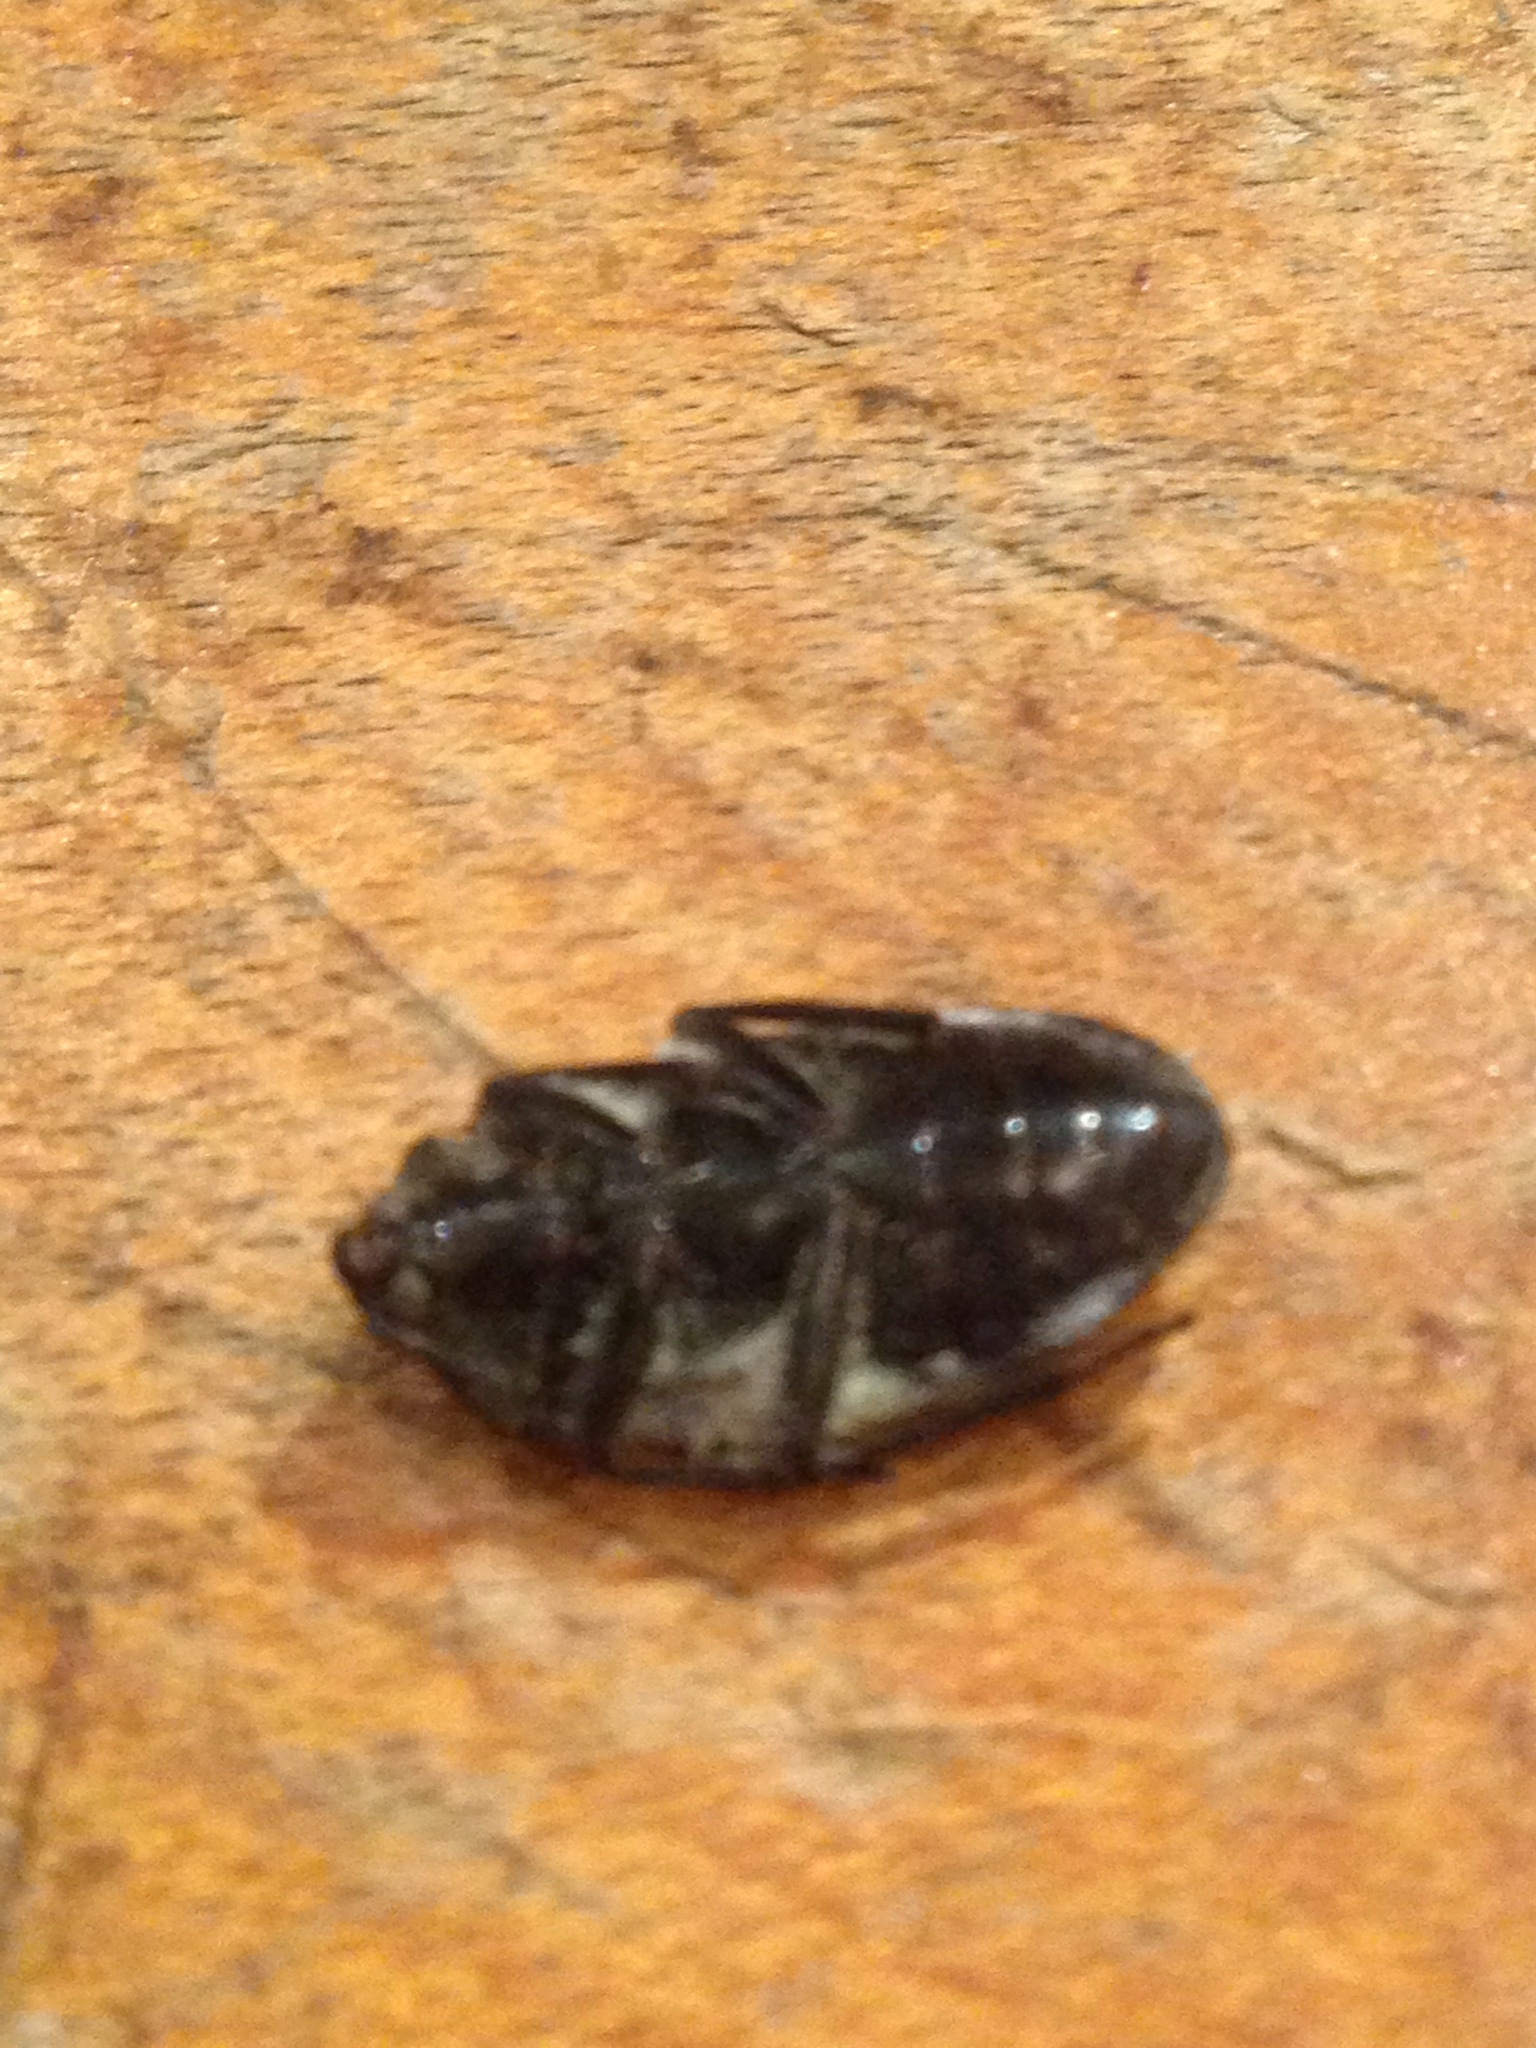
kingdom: Animalia
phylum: Arthropoda
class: Insecta
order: Coleoptera
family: Tetratomidae
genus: Penthe
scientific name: Penthe pimelia
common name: Velvety bark beetle
